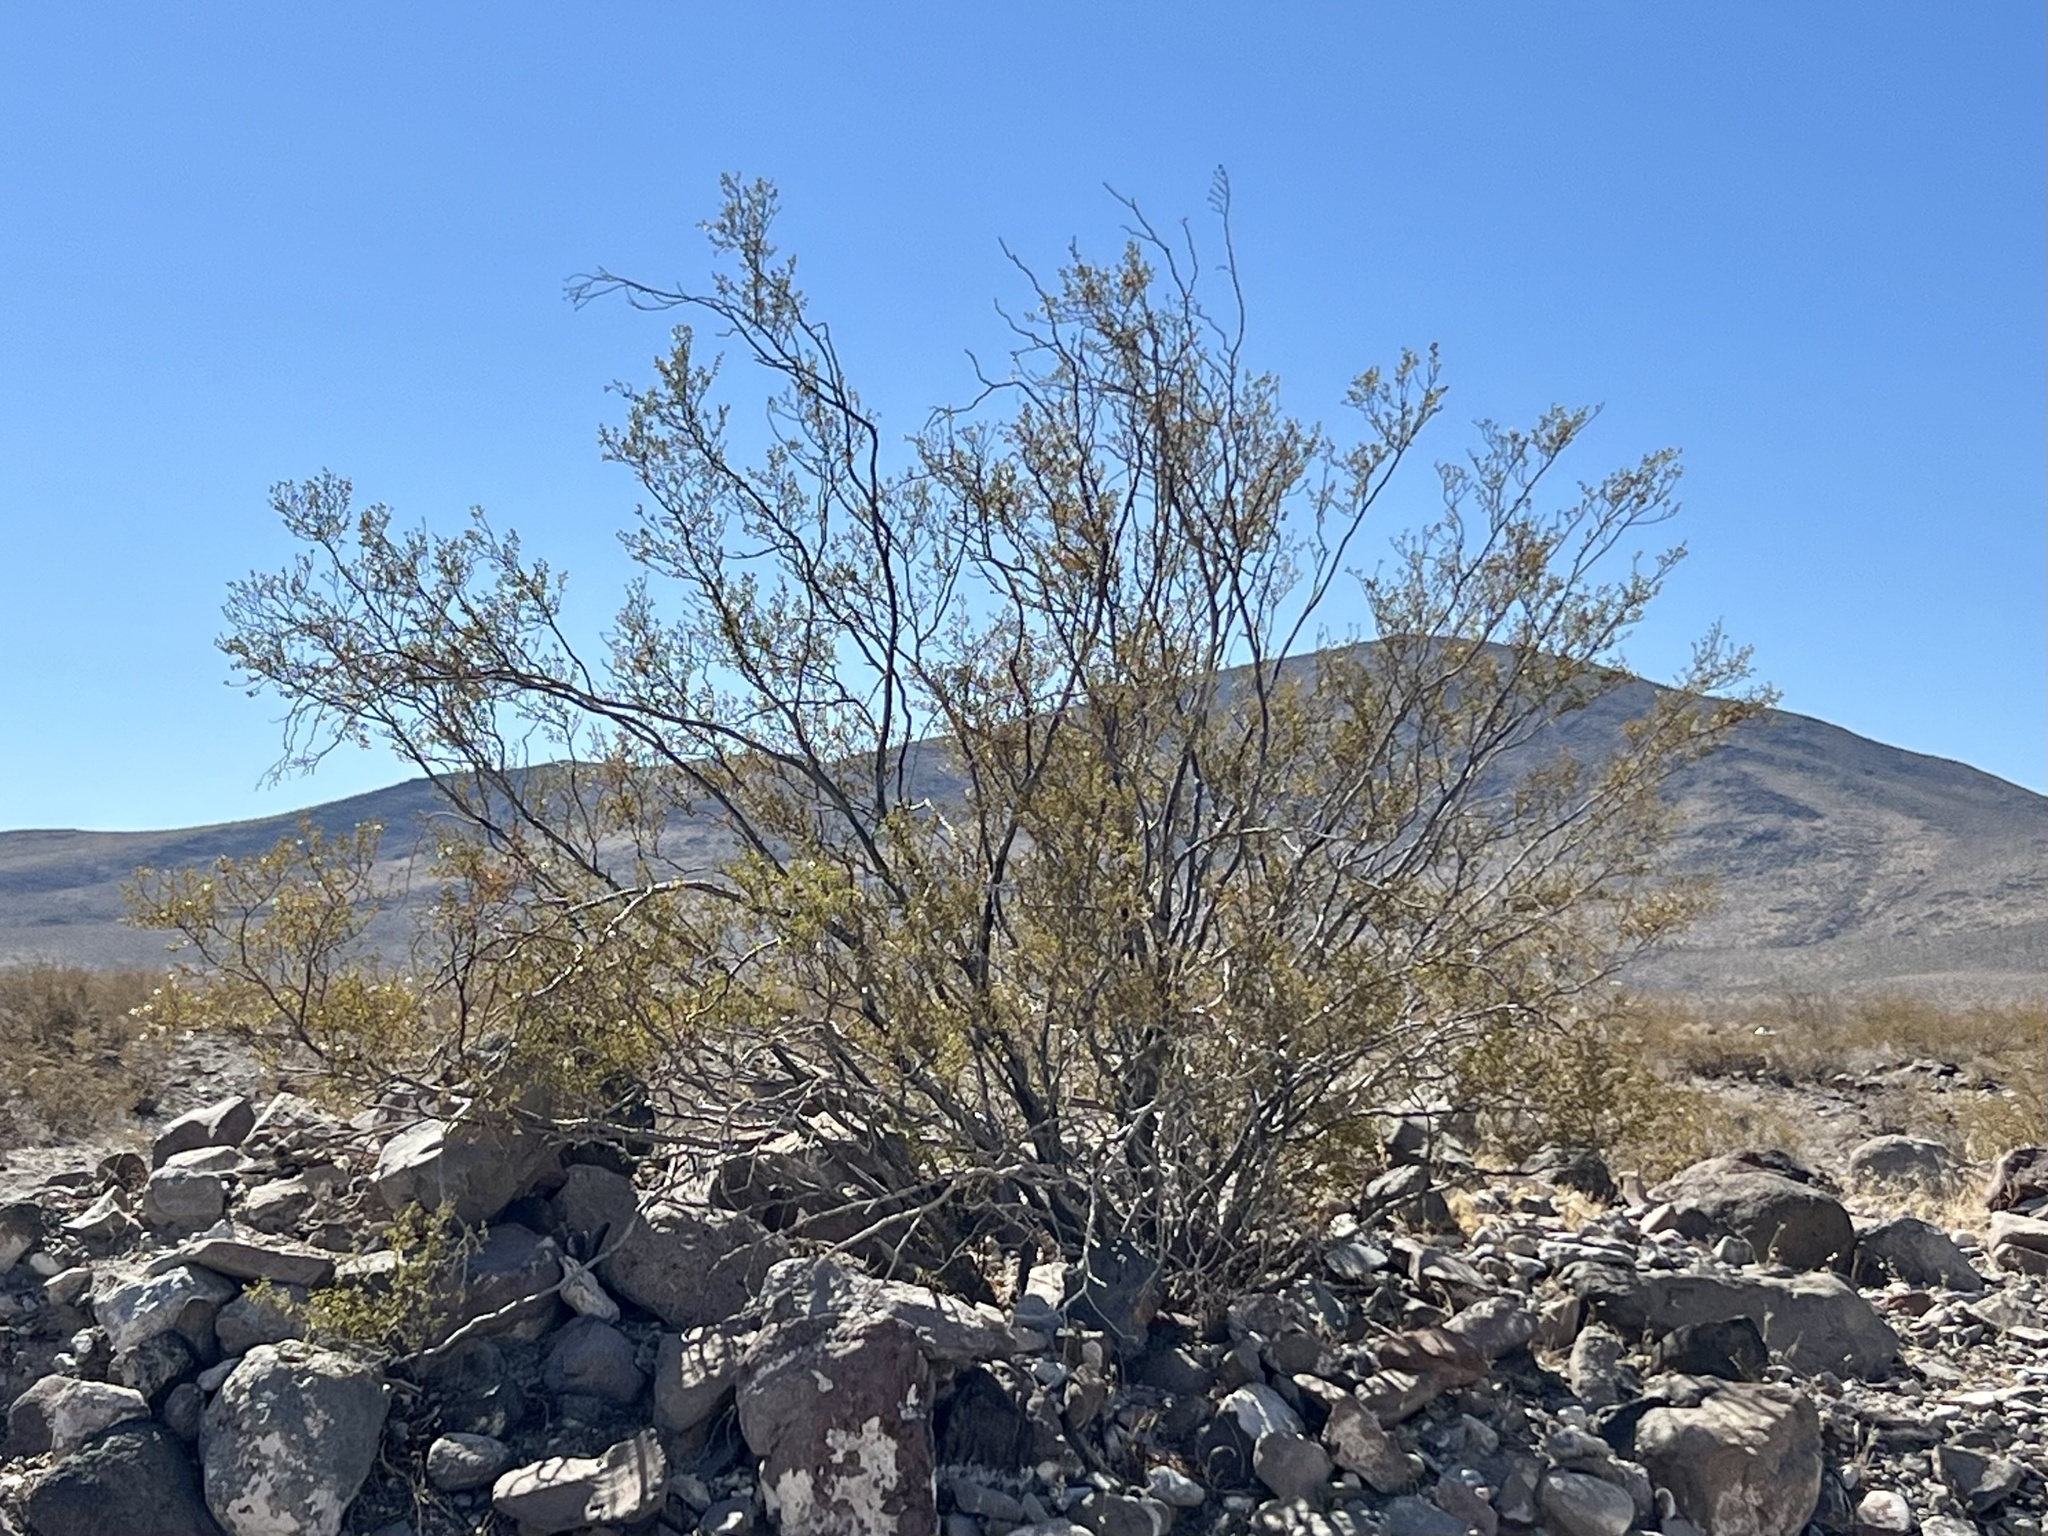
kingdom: Plantae
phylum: Tracheophyta
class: Magnoliopsida
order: Zygophyllales
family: Zygophyllaceae
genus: Larrea
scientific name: Larrea tridentata
